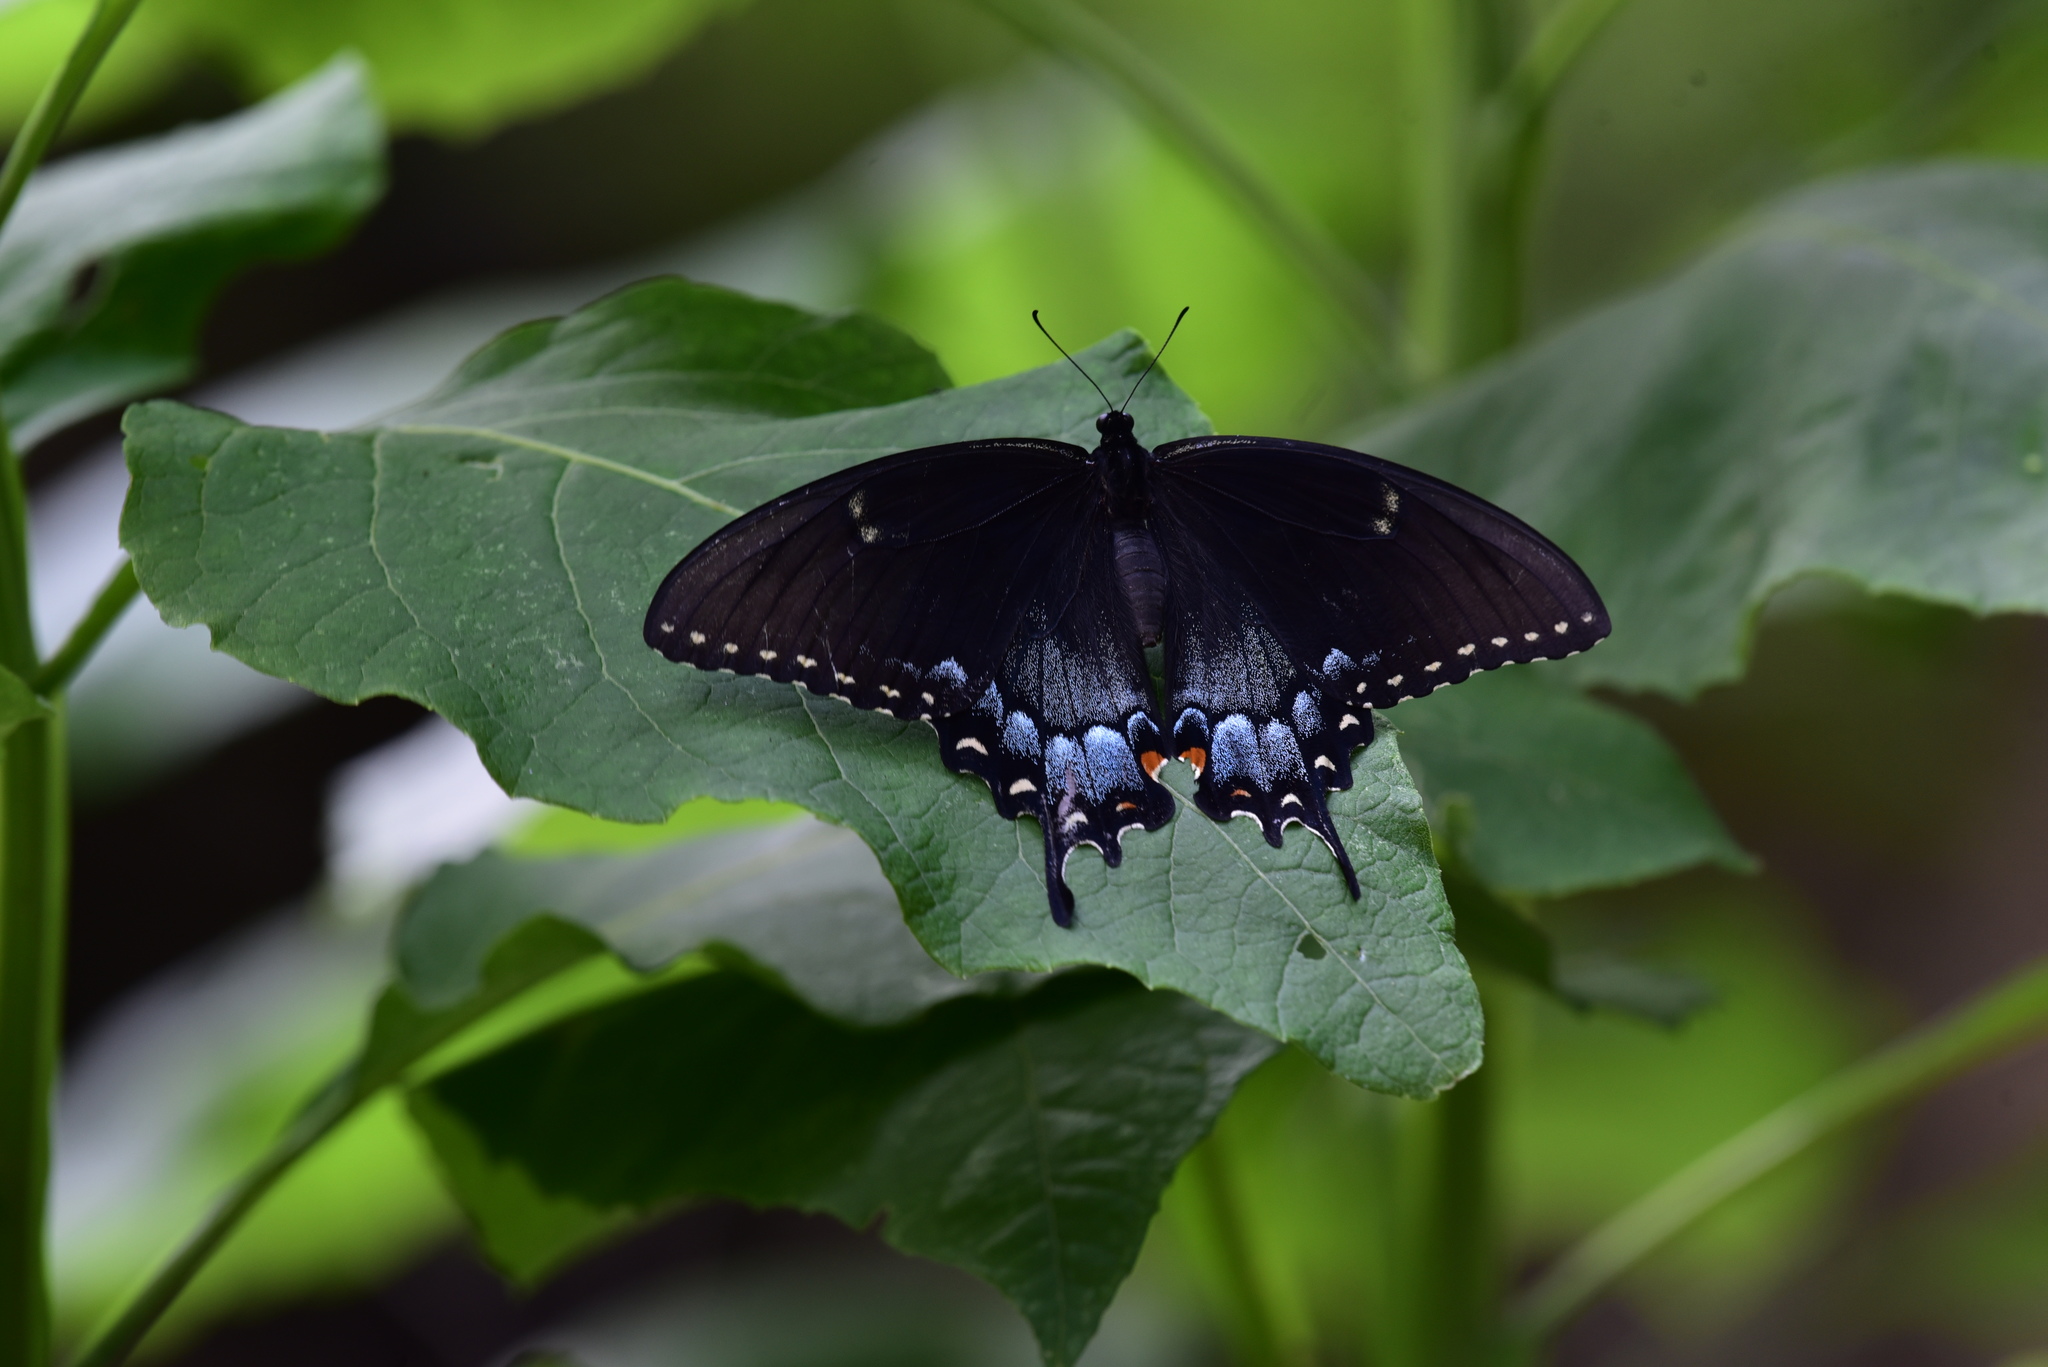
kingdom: Animalia
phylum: Arthropoda
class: Insecta
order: Lepidoptera
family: Papilionidae
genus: Papilio
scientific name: Papilio glaucus
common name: Tiger swallowtail
